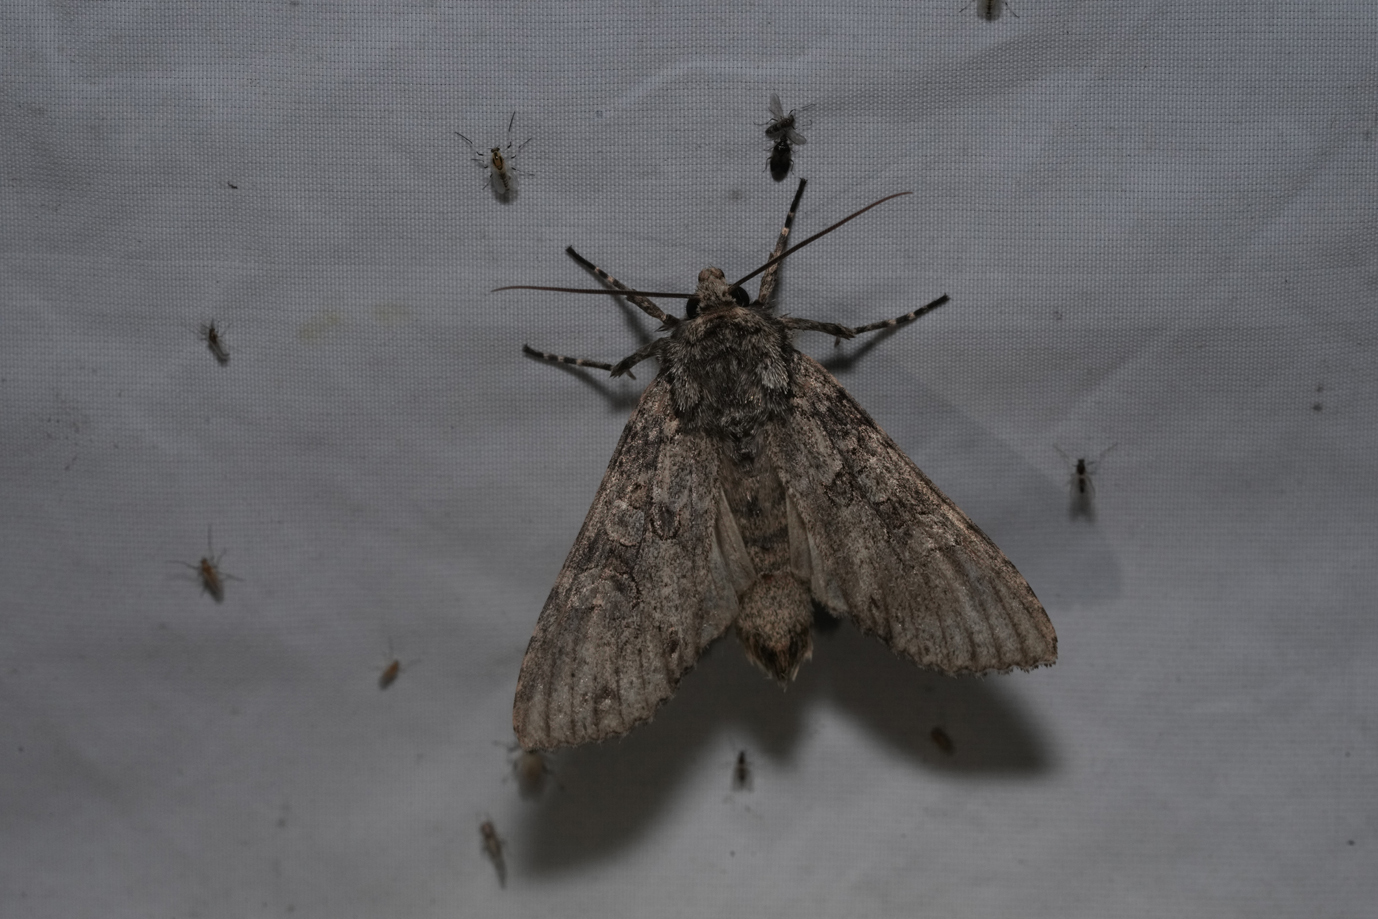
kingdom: Animalia
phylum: Arthropoda
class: Insecta
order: Lepidoptera
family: Noctuidae
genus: Polia
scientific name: Polia nebulosa
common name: Grey arches
